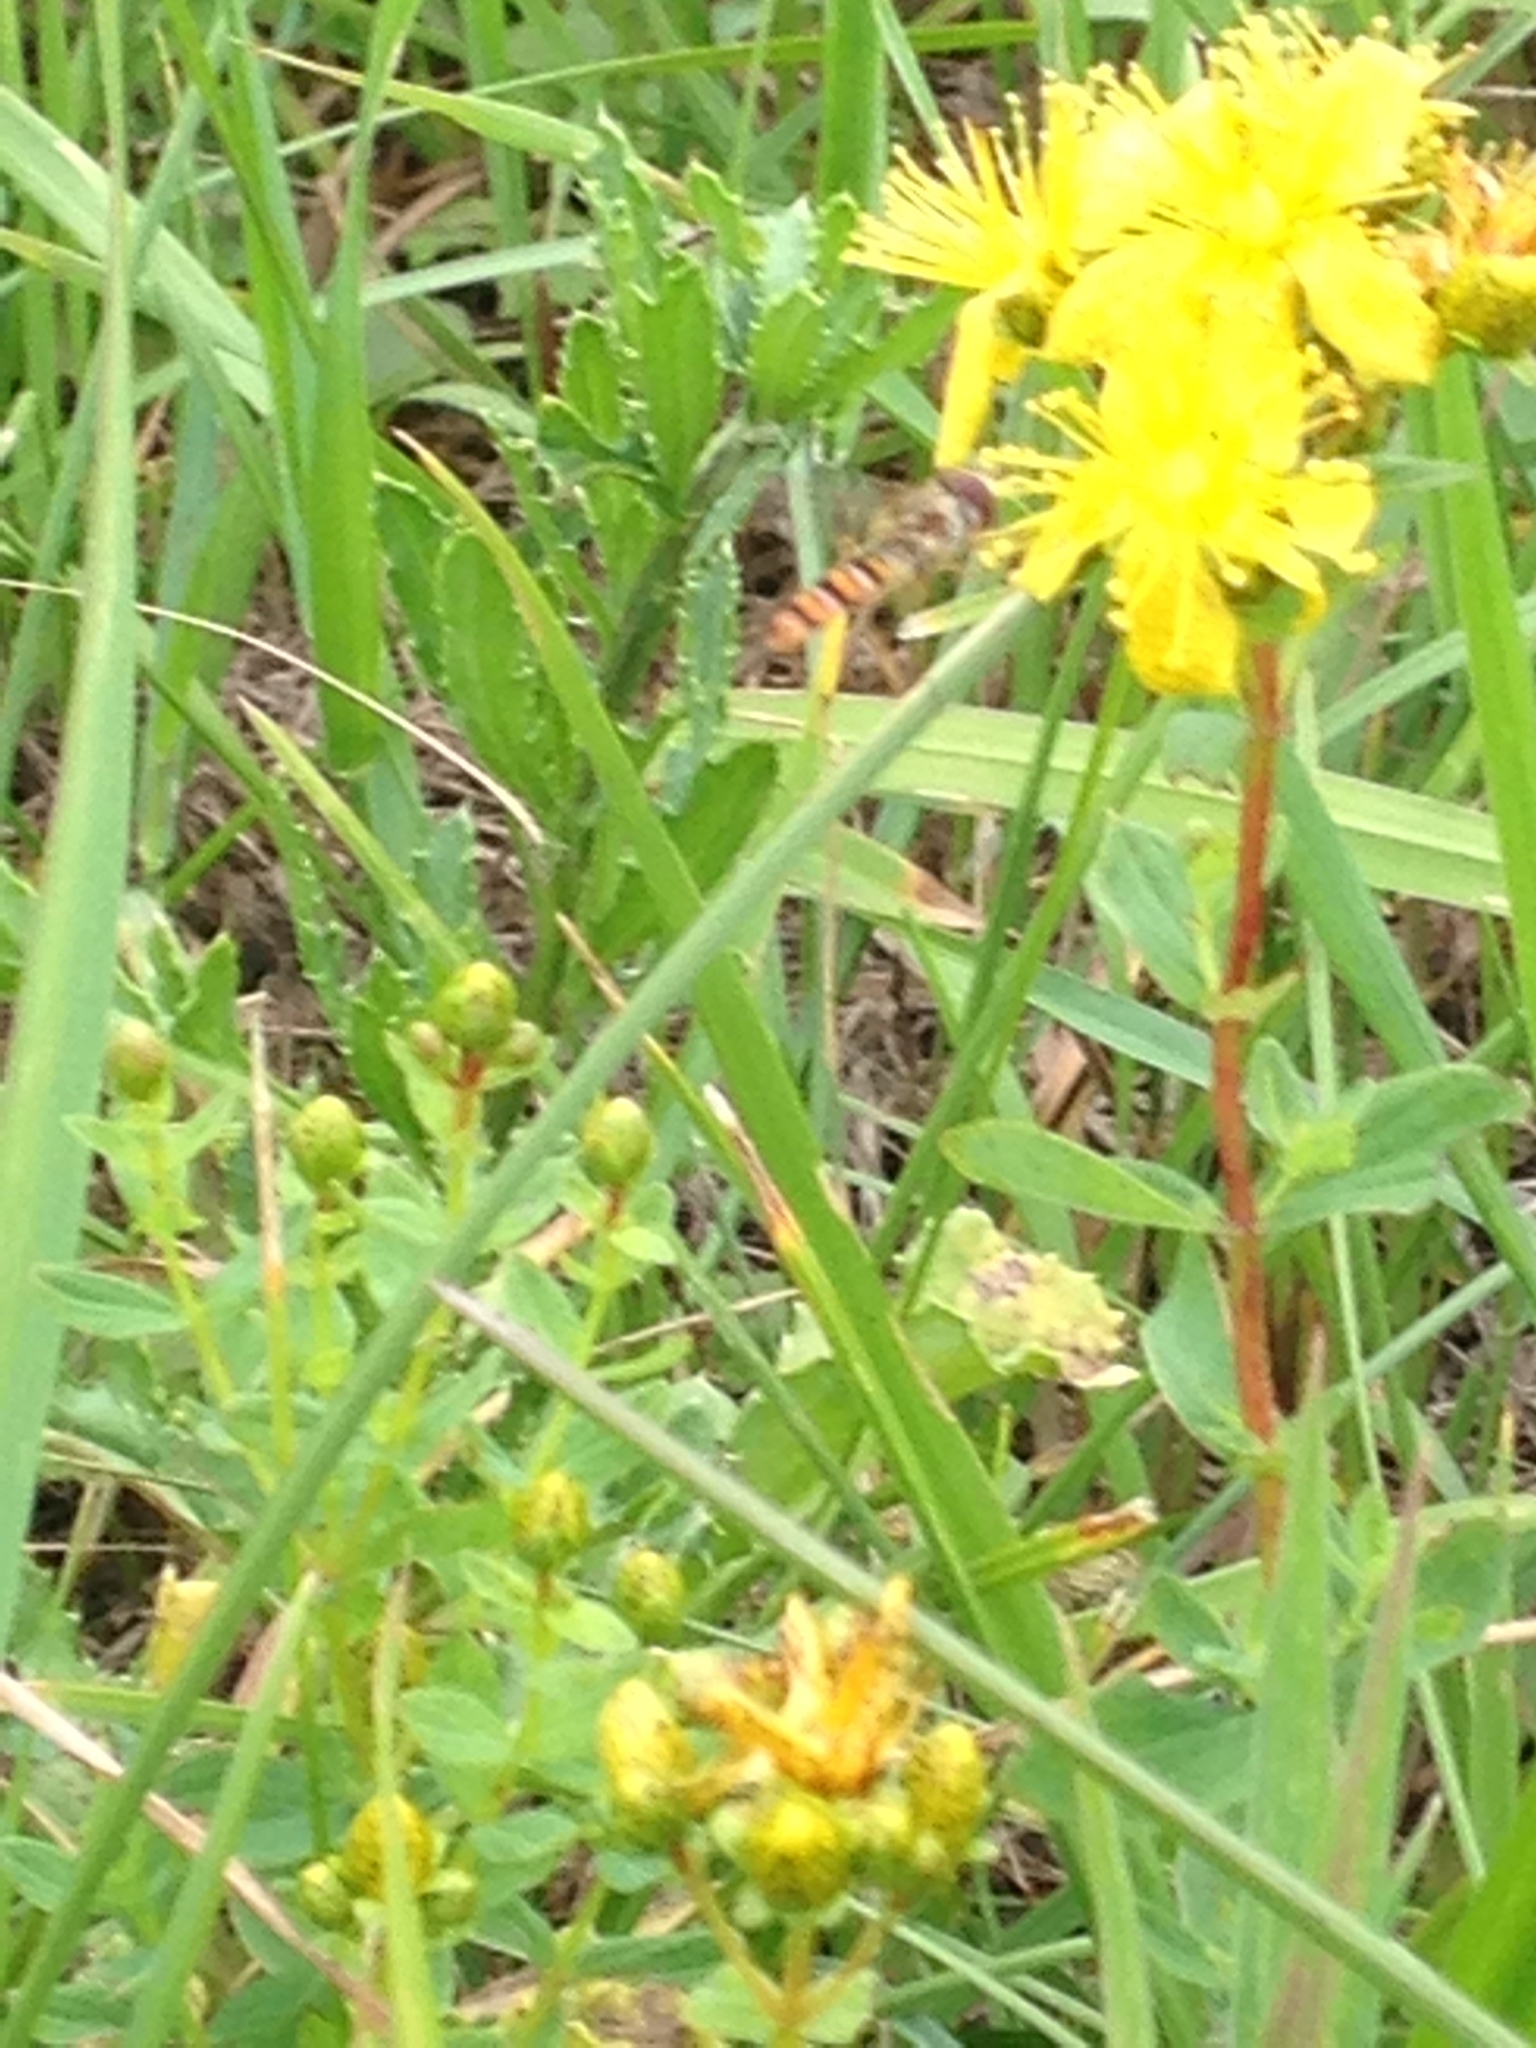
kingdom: Animalia
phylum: Arthropoda
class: Insecta
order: Diptera
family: Syrphidae
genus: Episyrphus
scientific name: Episyrphus balteatus
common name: Marmalade hoverfly
